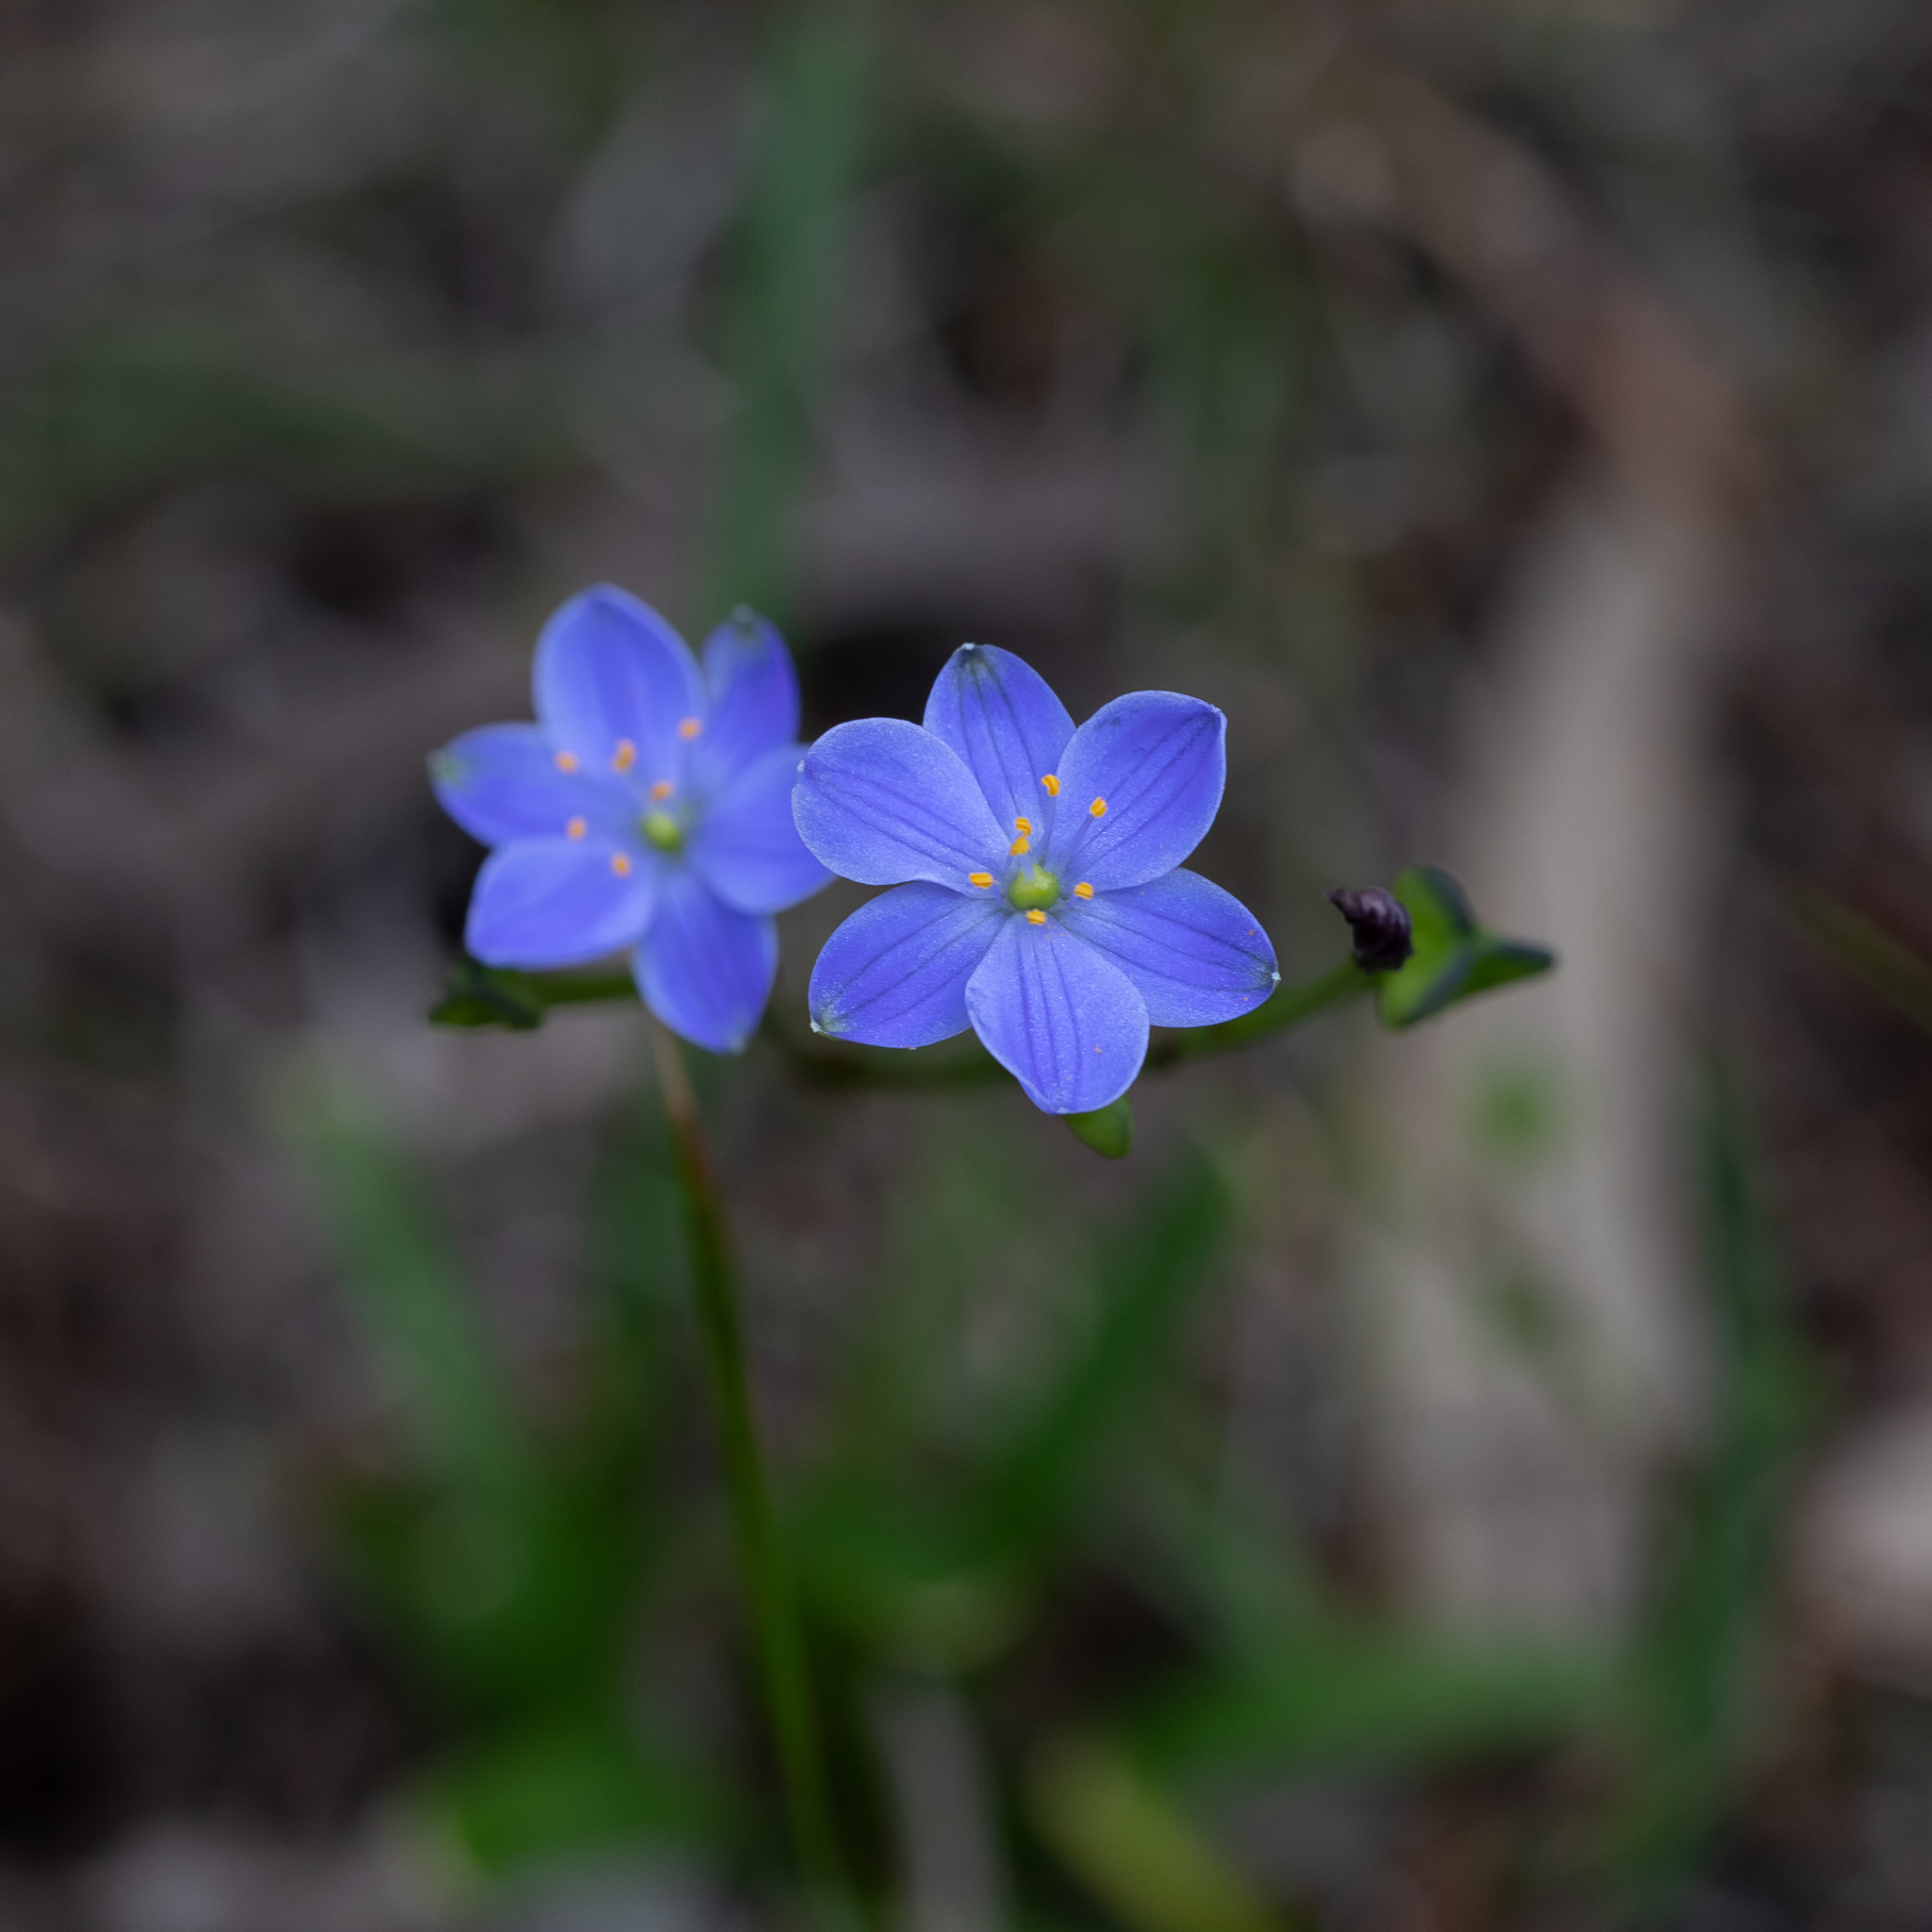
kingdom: Plantae
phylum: Tracheophyta
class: Liliopsida
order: Asparagales
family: Asphodelaceae
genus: Chamaescilla
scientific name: Chamaescilla corymbosa
